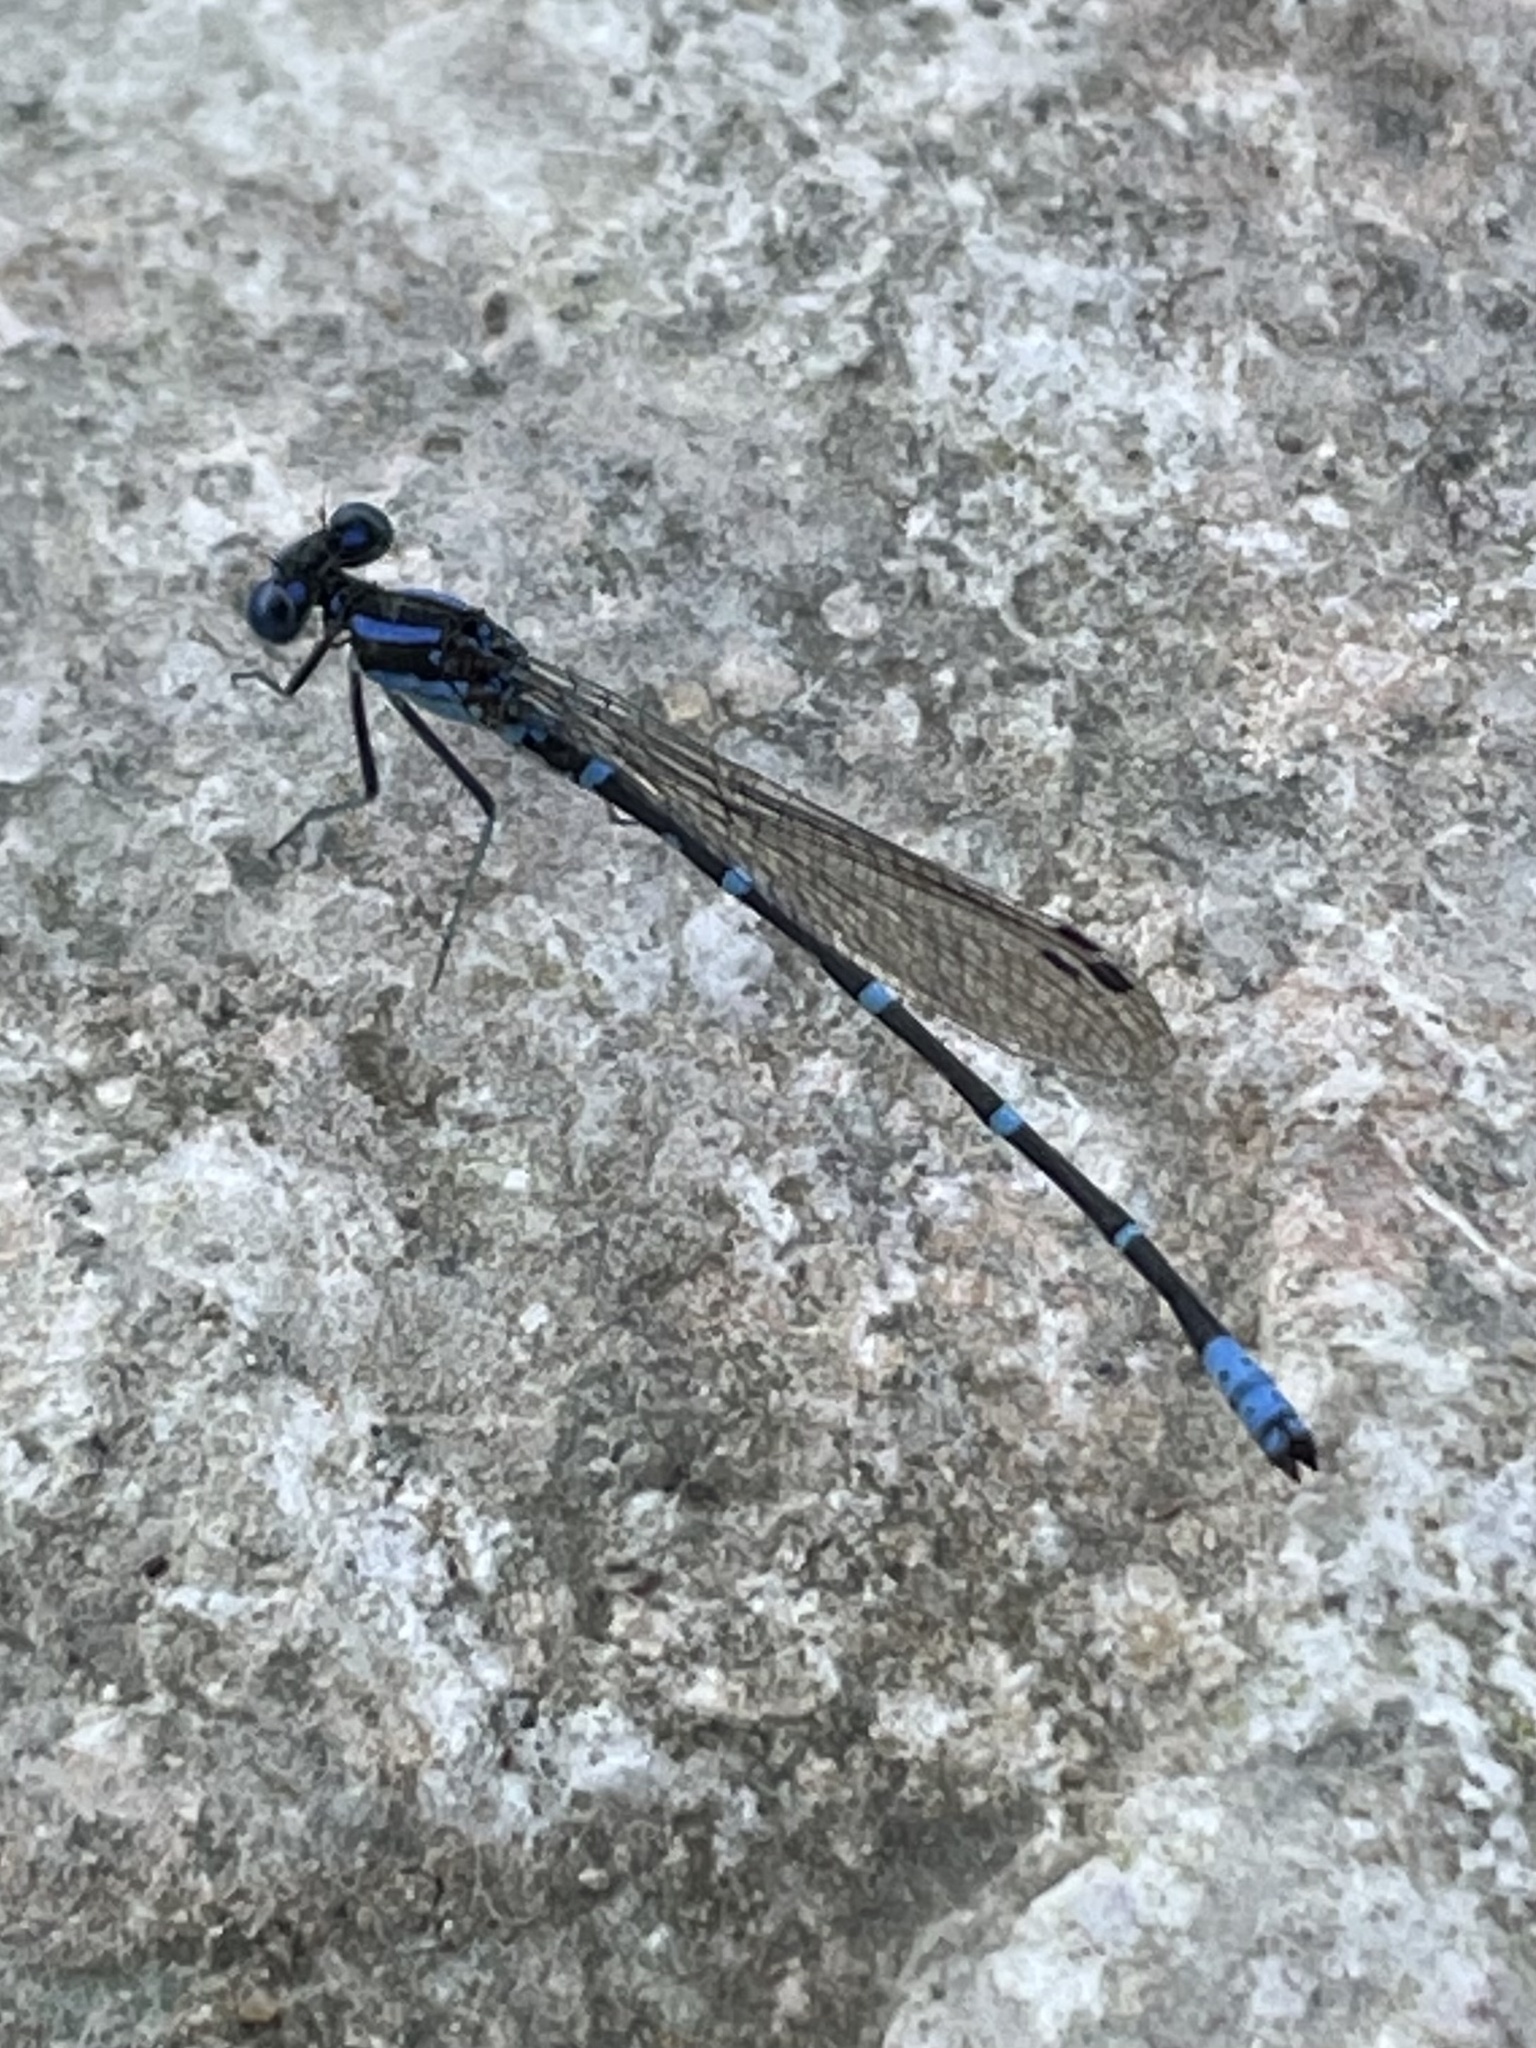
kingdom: Animalia
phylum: Arthropoda
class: Insecta
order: Odonata
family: Coenagrionidae
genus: Argia
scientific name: Argia sedula
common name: Blue-ringed dancer
